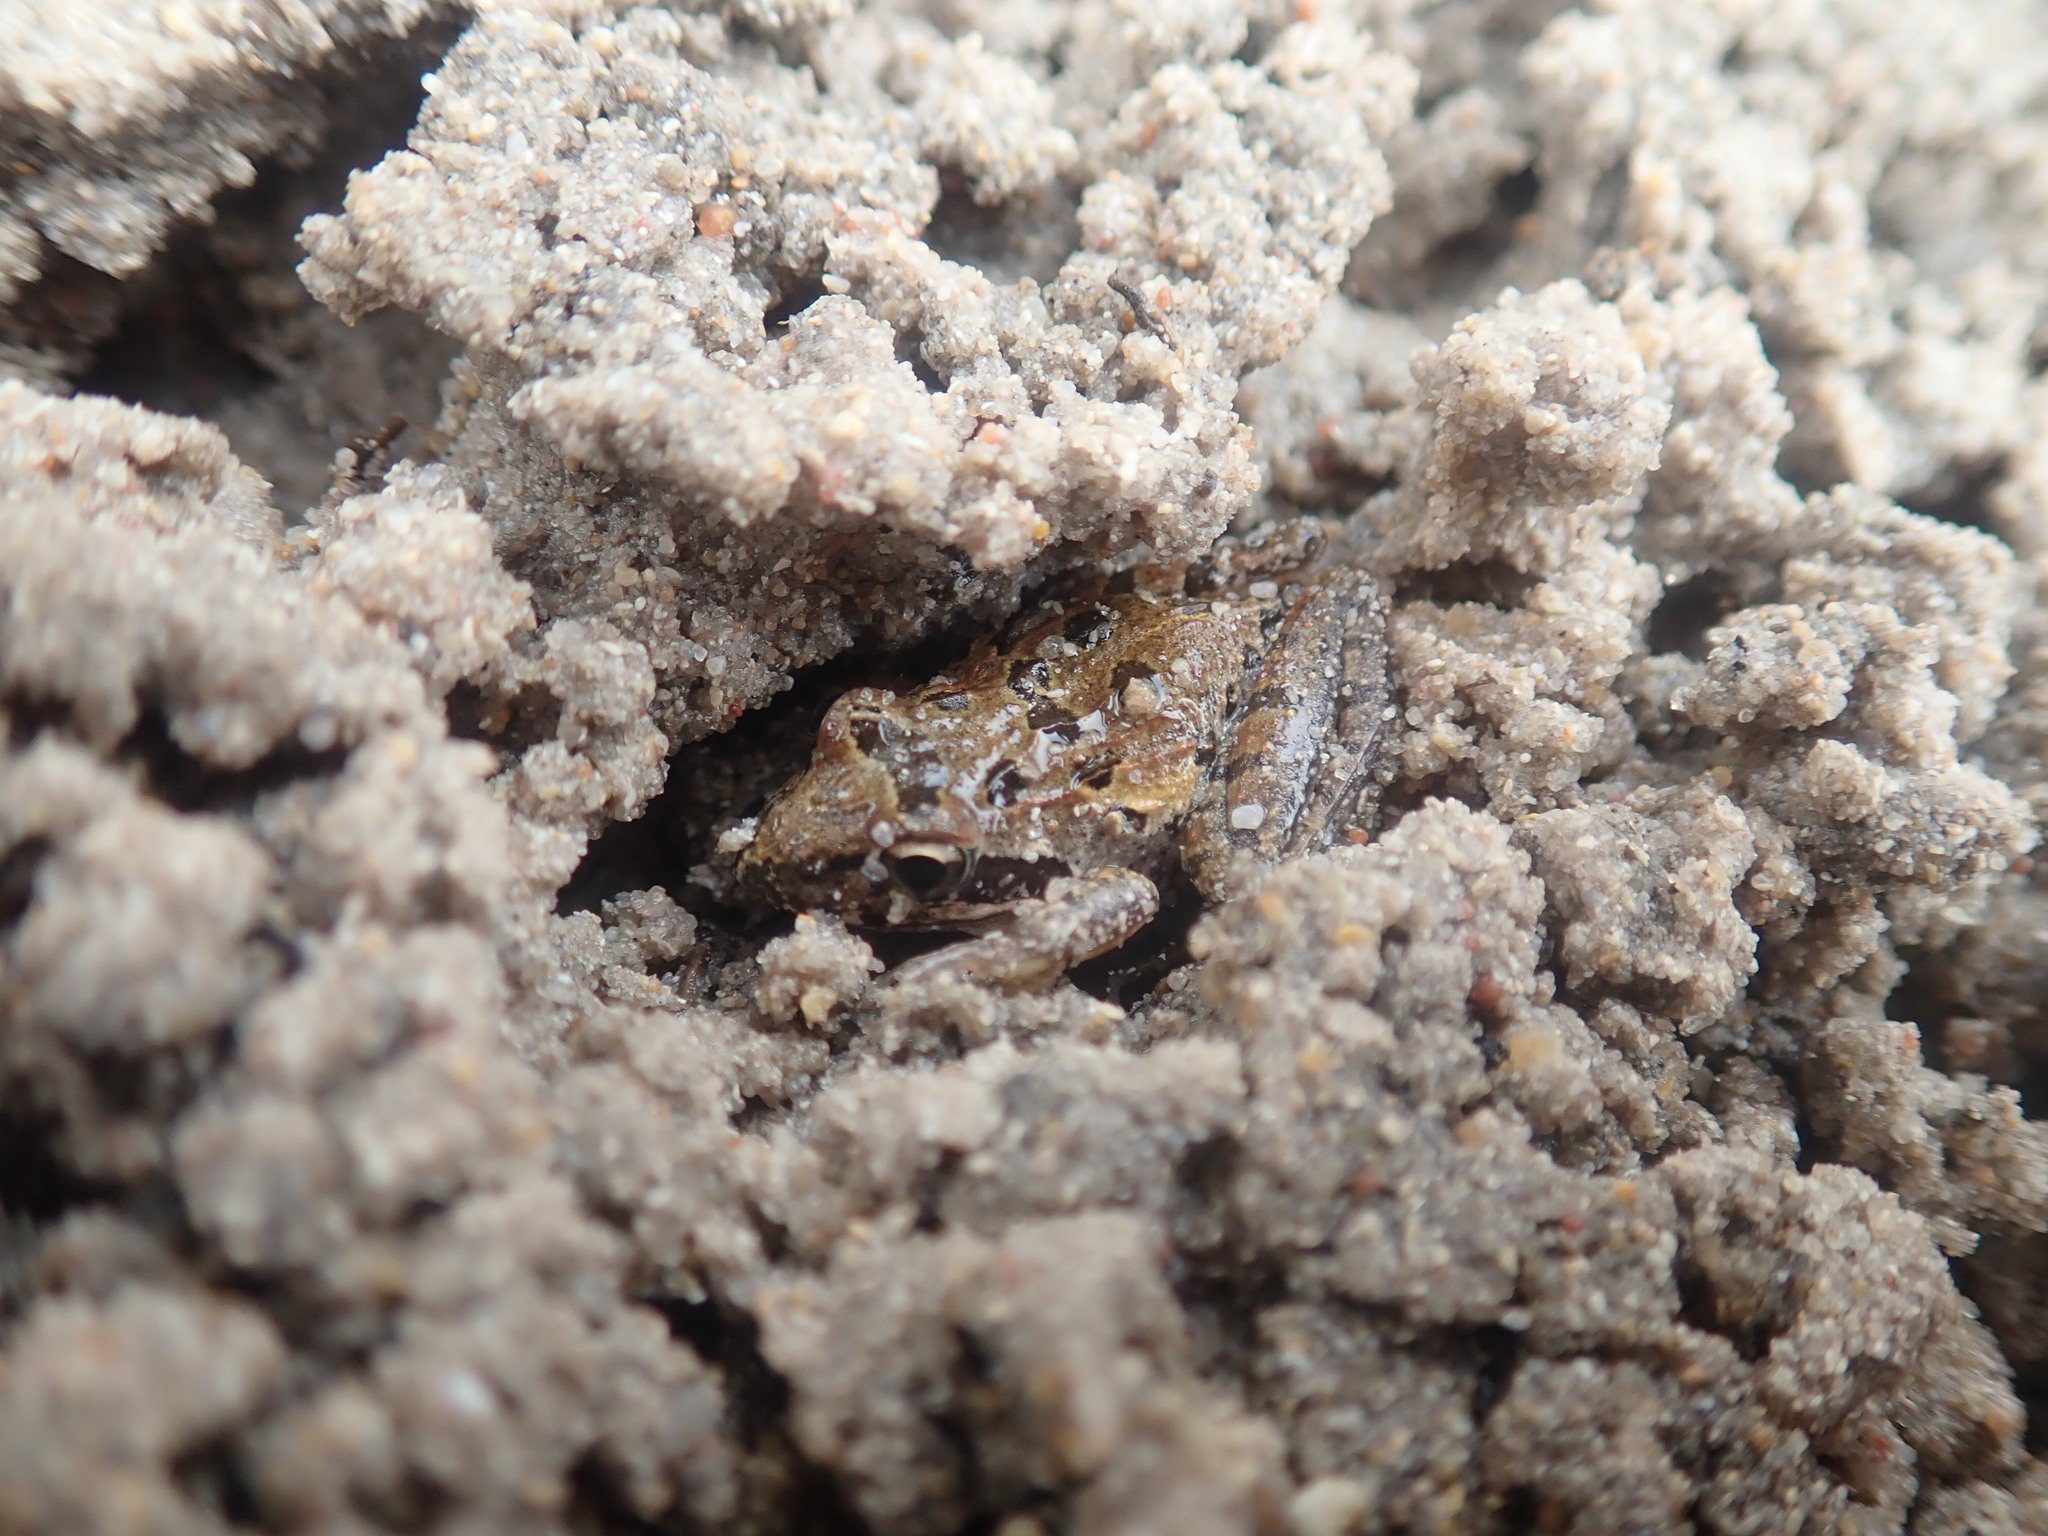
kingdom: Animalia
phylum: Chordata
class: Amphibia
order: Anura
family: Pyxicephalidae
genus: Strongylopus
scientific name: Strongylopus grayii
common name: Gray's stream frog
